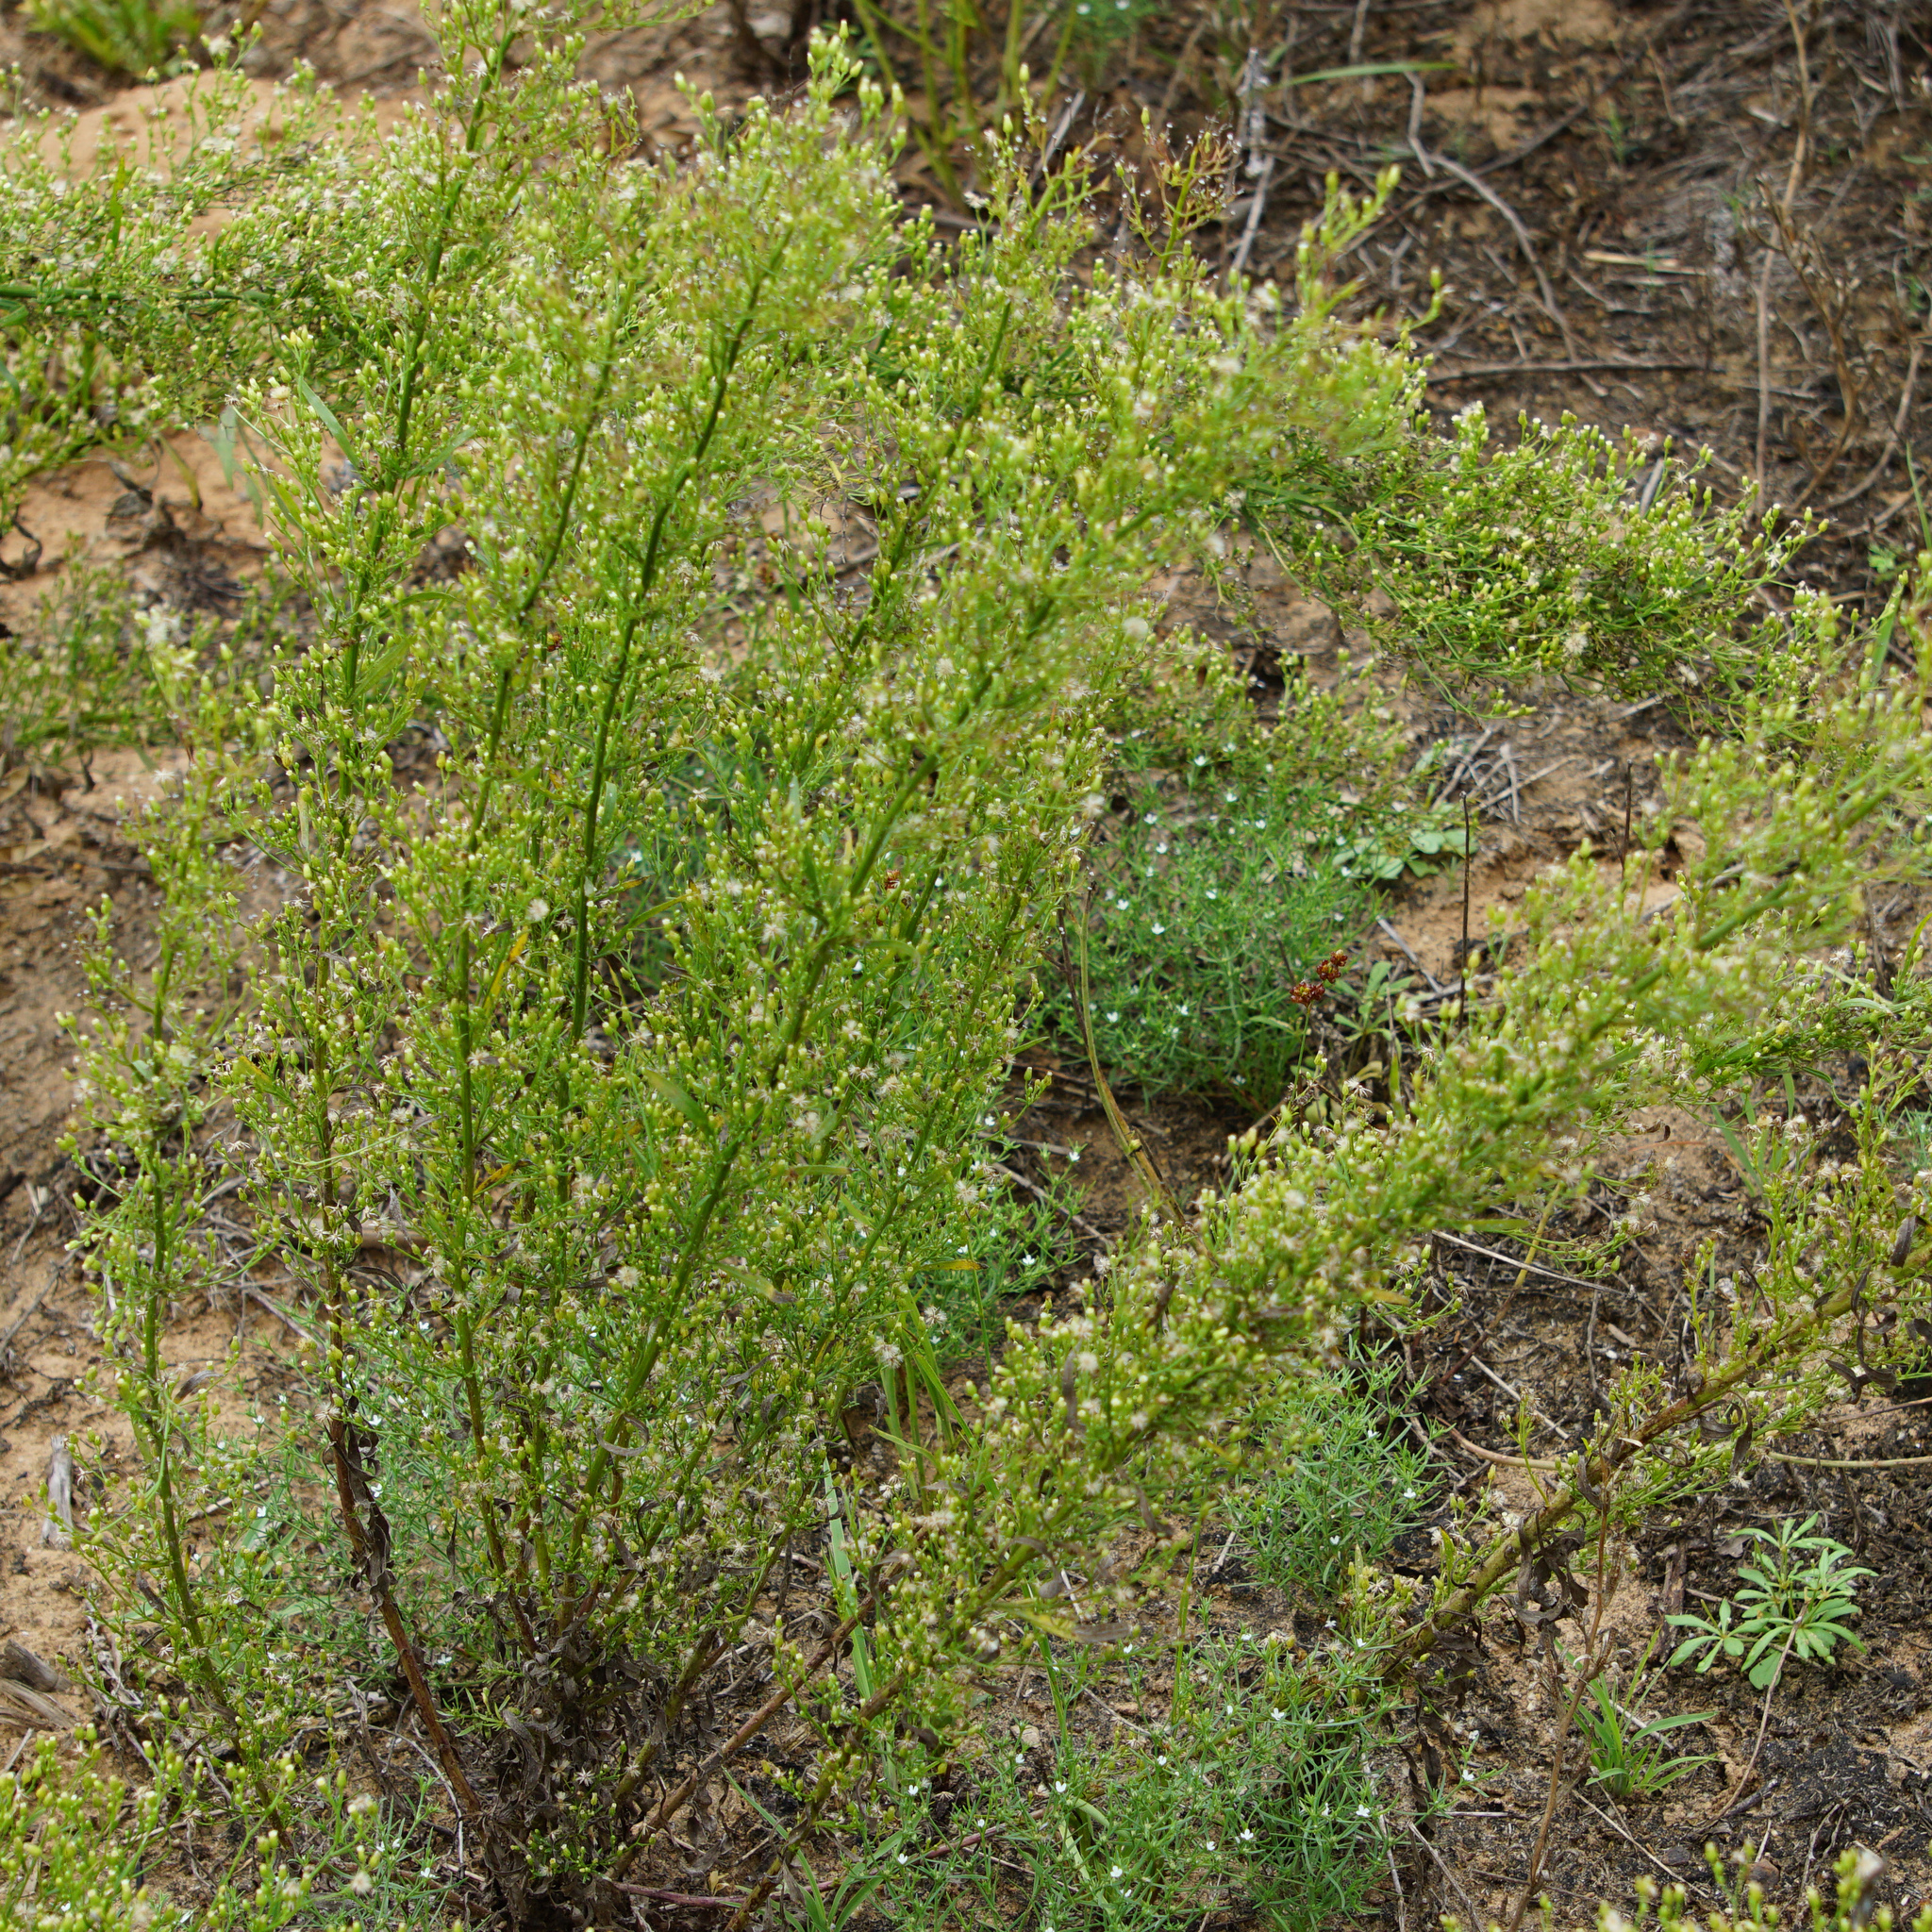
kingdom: Plantae
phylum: Tracheophyta
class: Magnoliopsida
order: Asterales
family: Asteraceae
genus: Erigeron
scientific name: Erigeron canadensis
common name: Canadian fleabane
